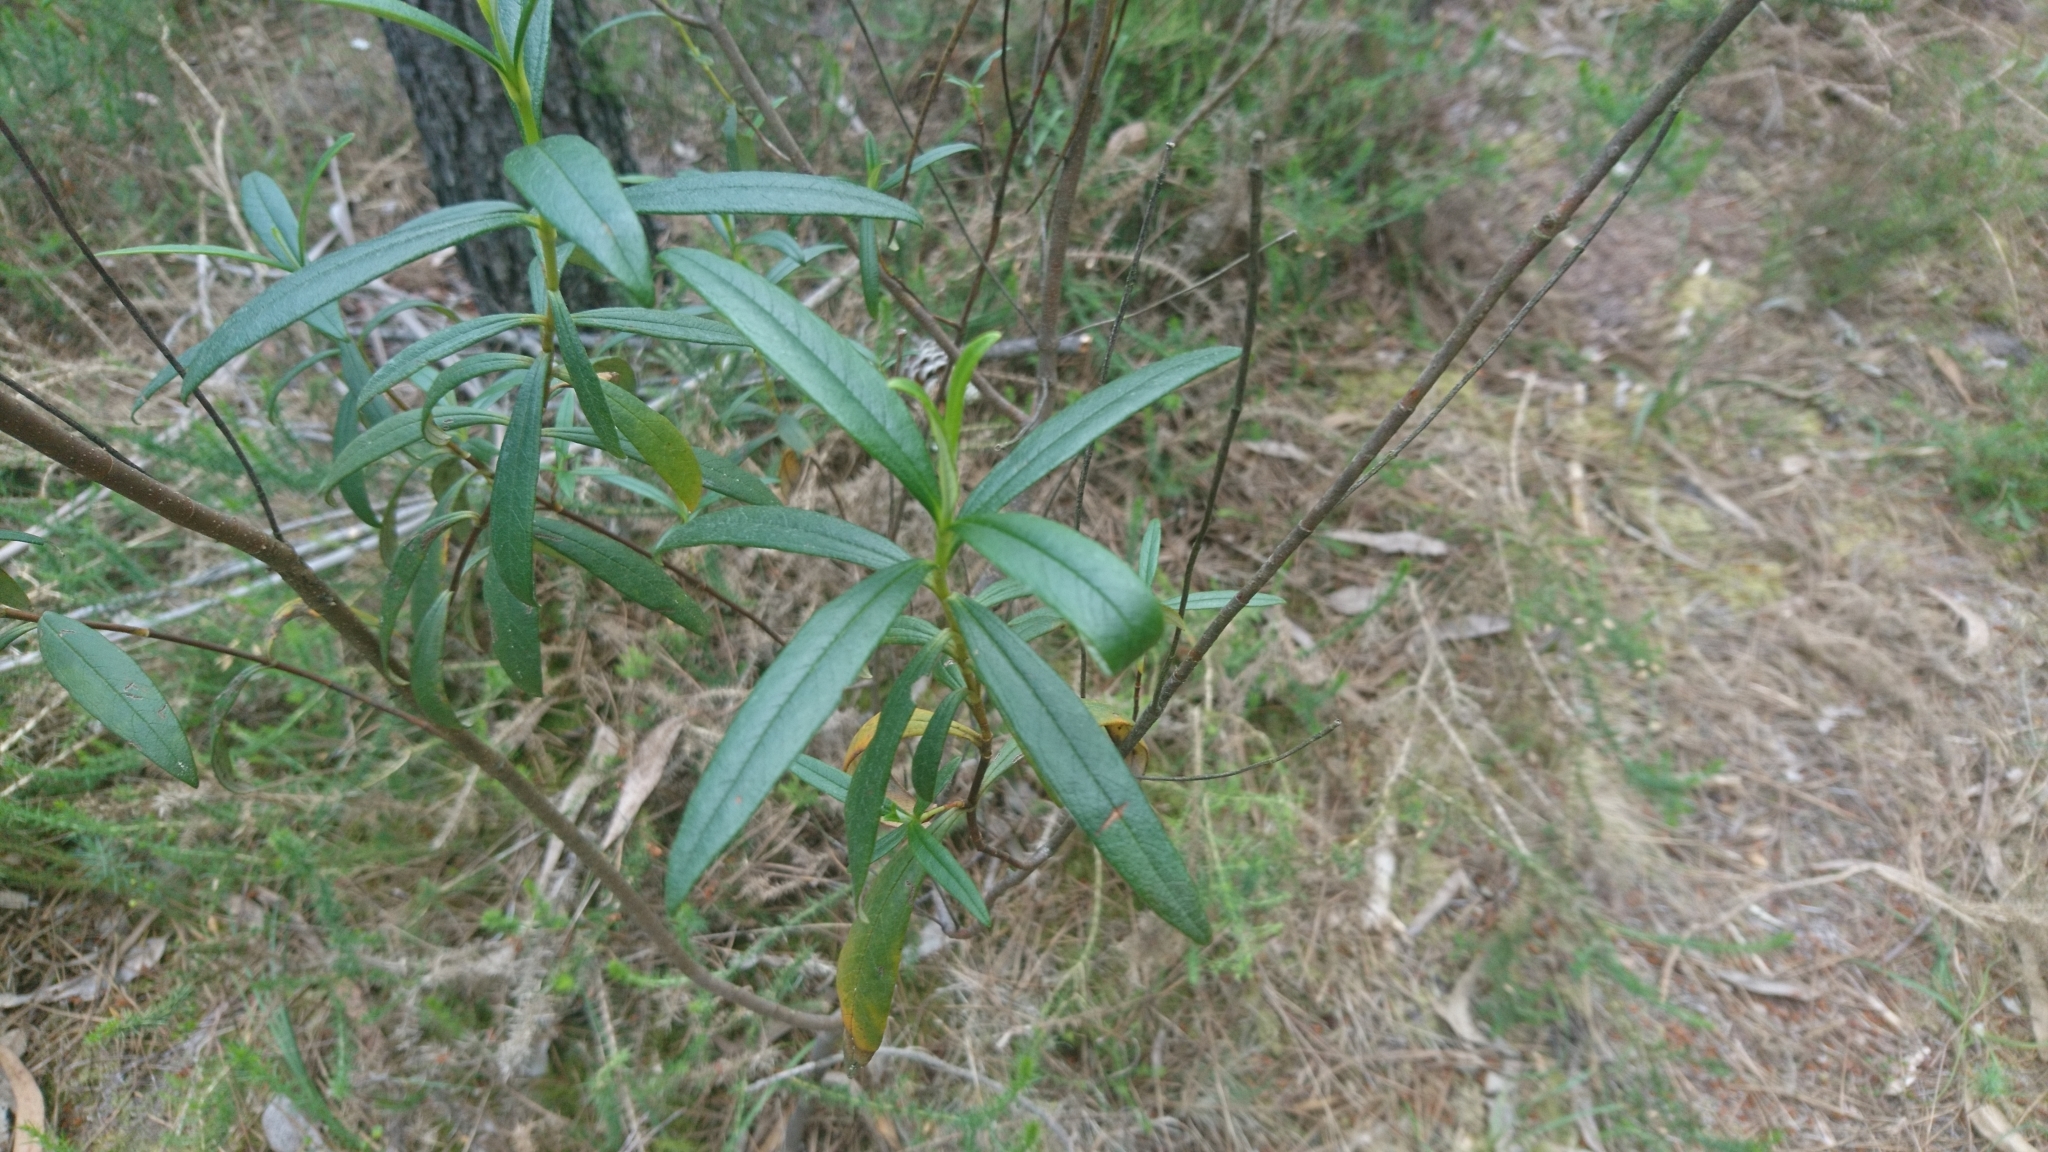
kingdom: Plantae
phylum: Tracheophyta
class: Magnoliopsida
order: Malvales
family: Cistaceae
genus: Cistus
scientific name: Cistus ladanifer
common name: Common gum cistus
